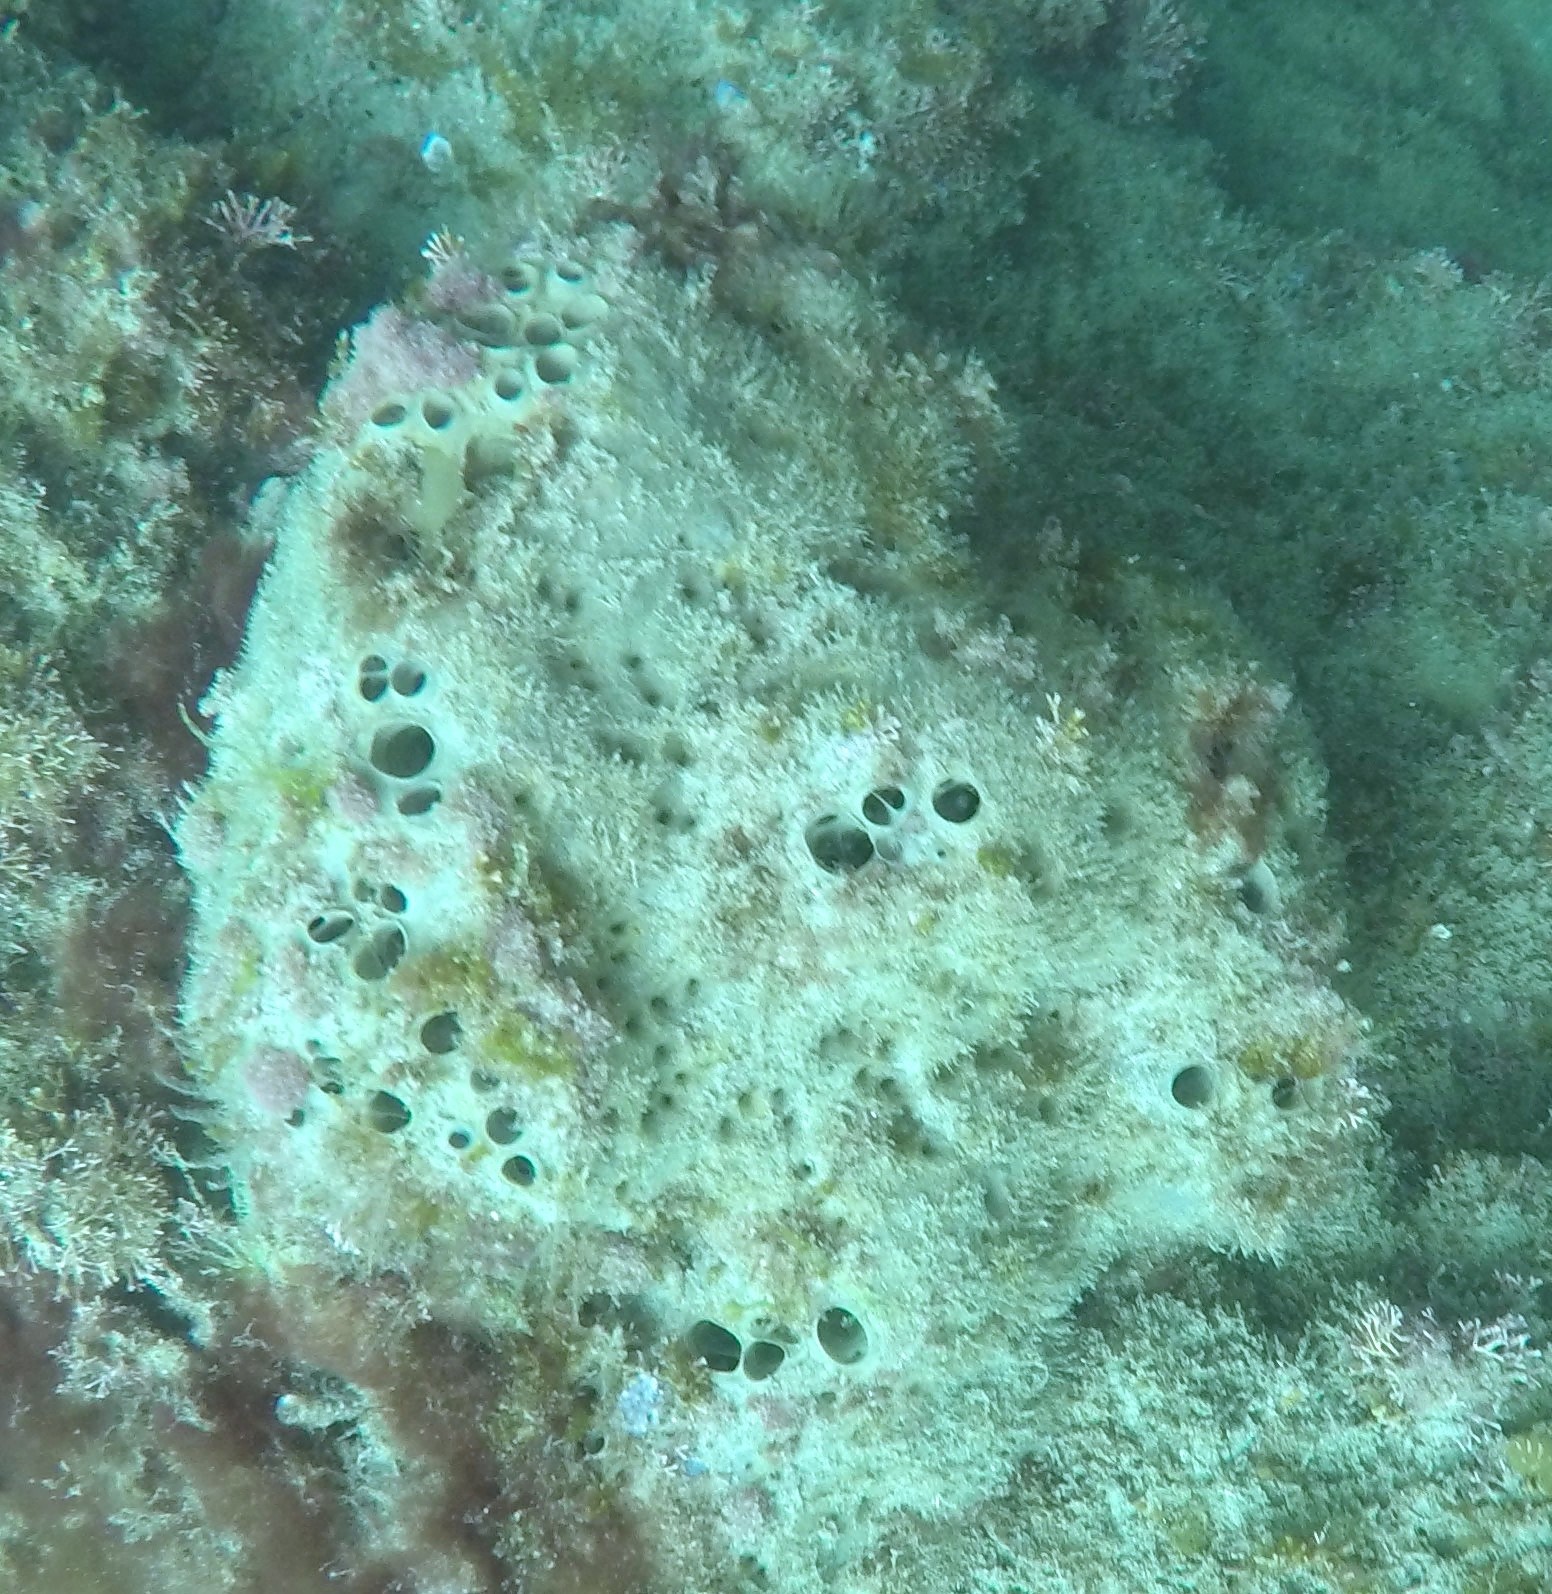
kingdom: Animalia
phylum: Porifera
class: Demospongiae
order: Clionaida
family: Clionaidae
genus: Spheciospongia
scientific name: Spheciospongia confoederata
